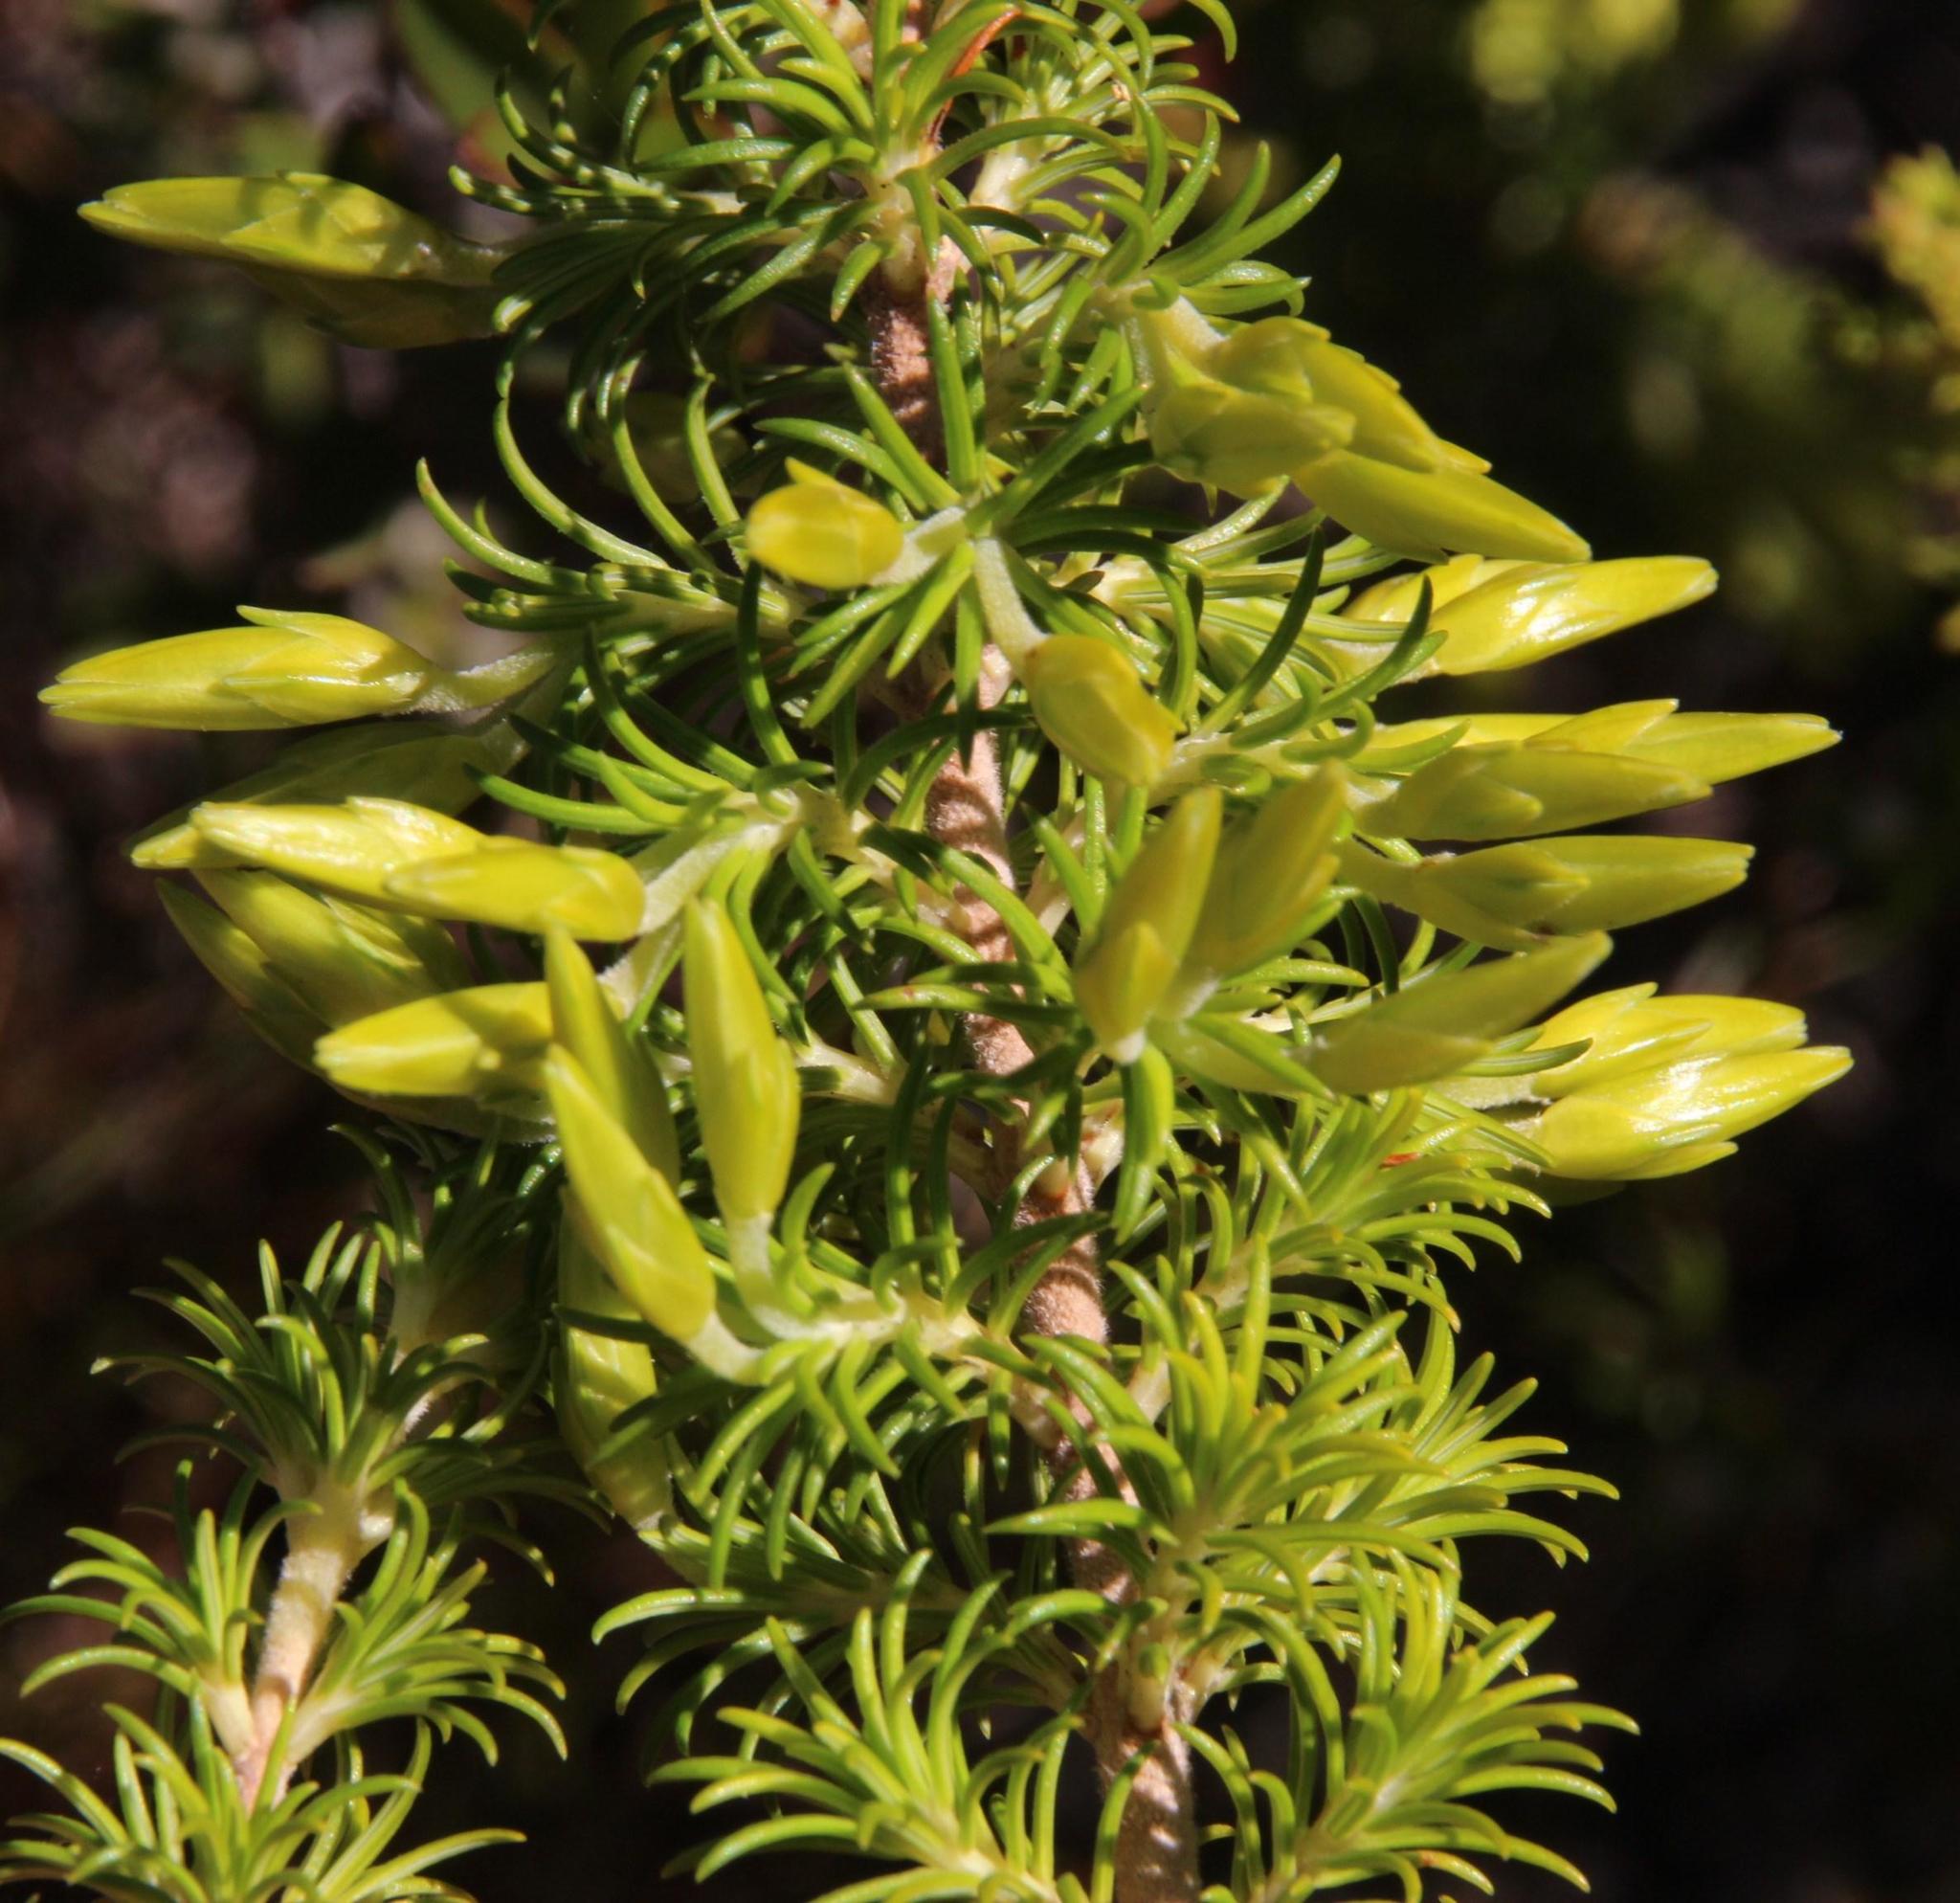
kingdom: Plantae
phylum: Tracheophyta
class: Magnoliopsida
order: Ericales
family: Ericaceae
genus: Erica
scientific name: Erica coccinea
